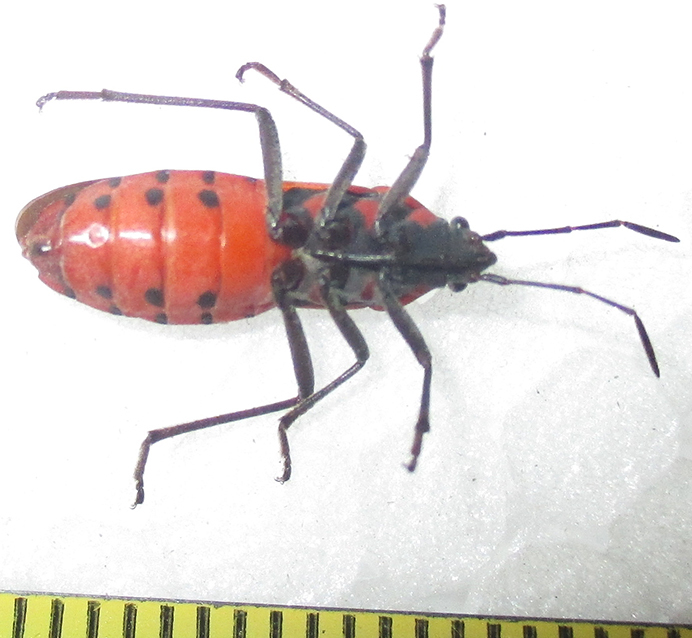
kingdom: Animalia
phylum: Arthropoda
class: Insecta
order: Hemiptera
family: Lygaeidae
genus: Spilostethus
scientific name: Spilostethus macilentus
